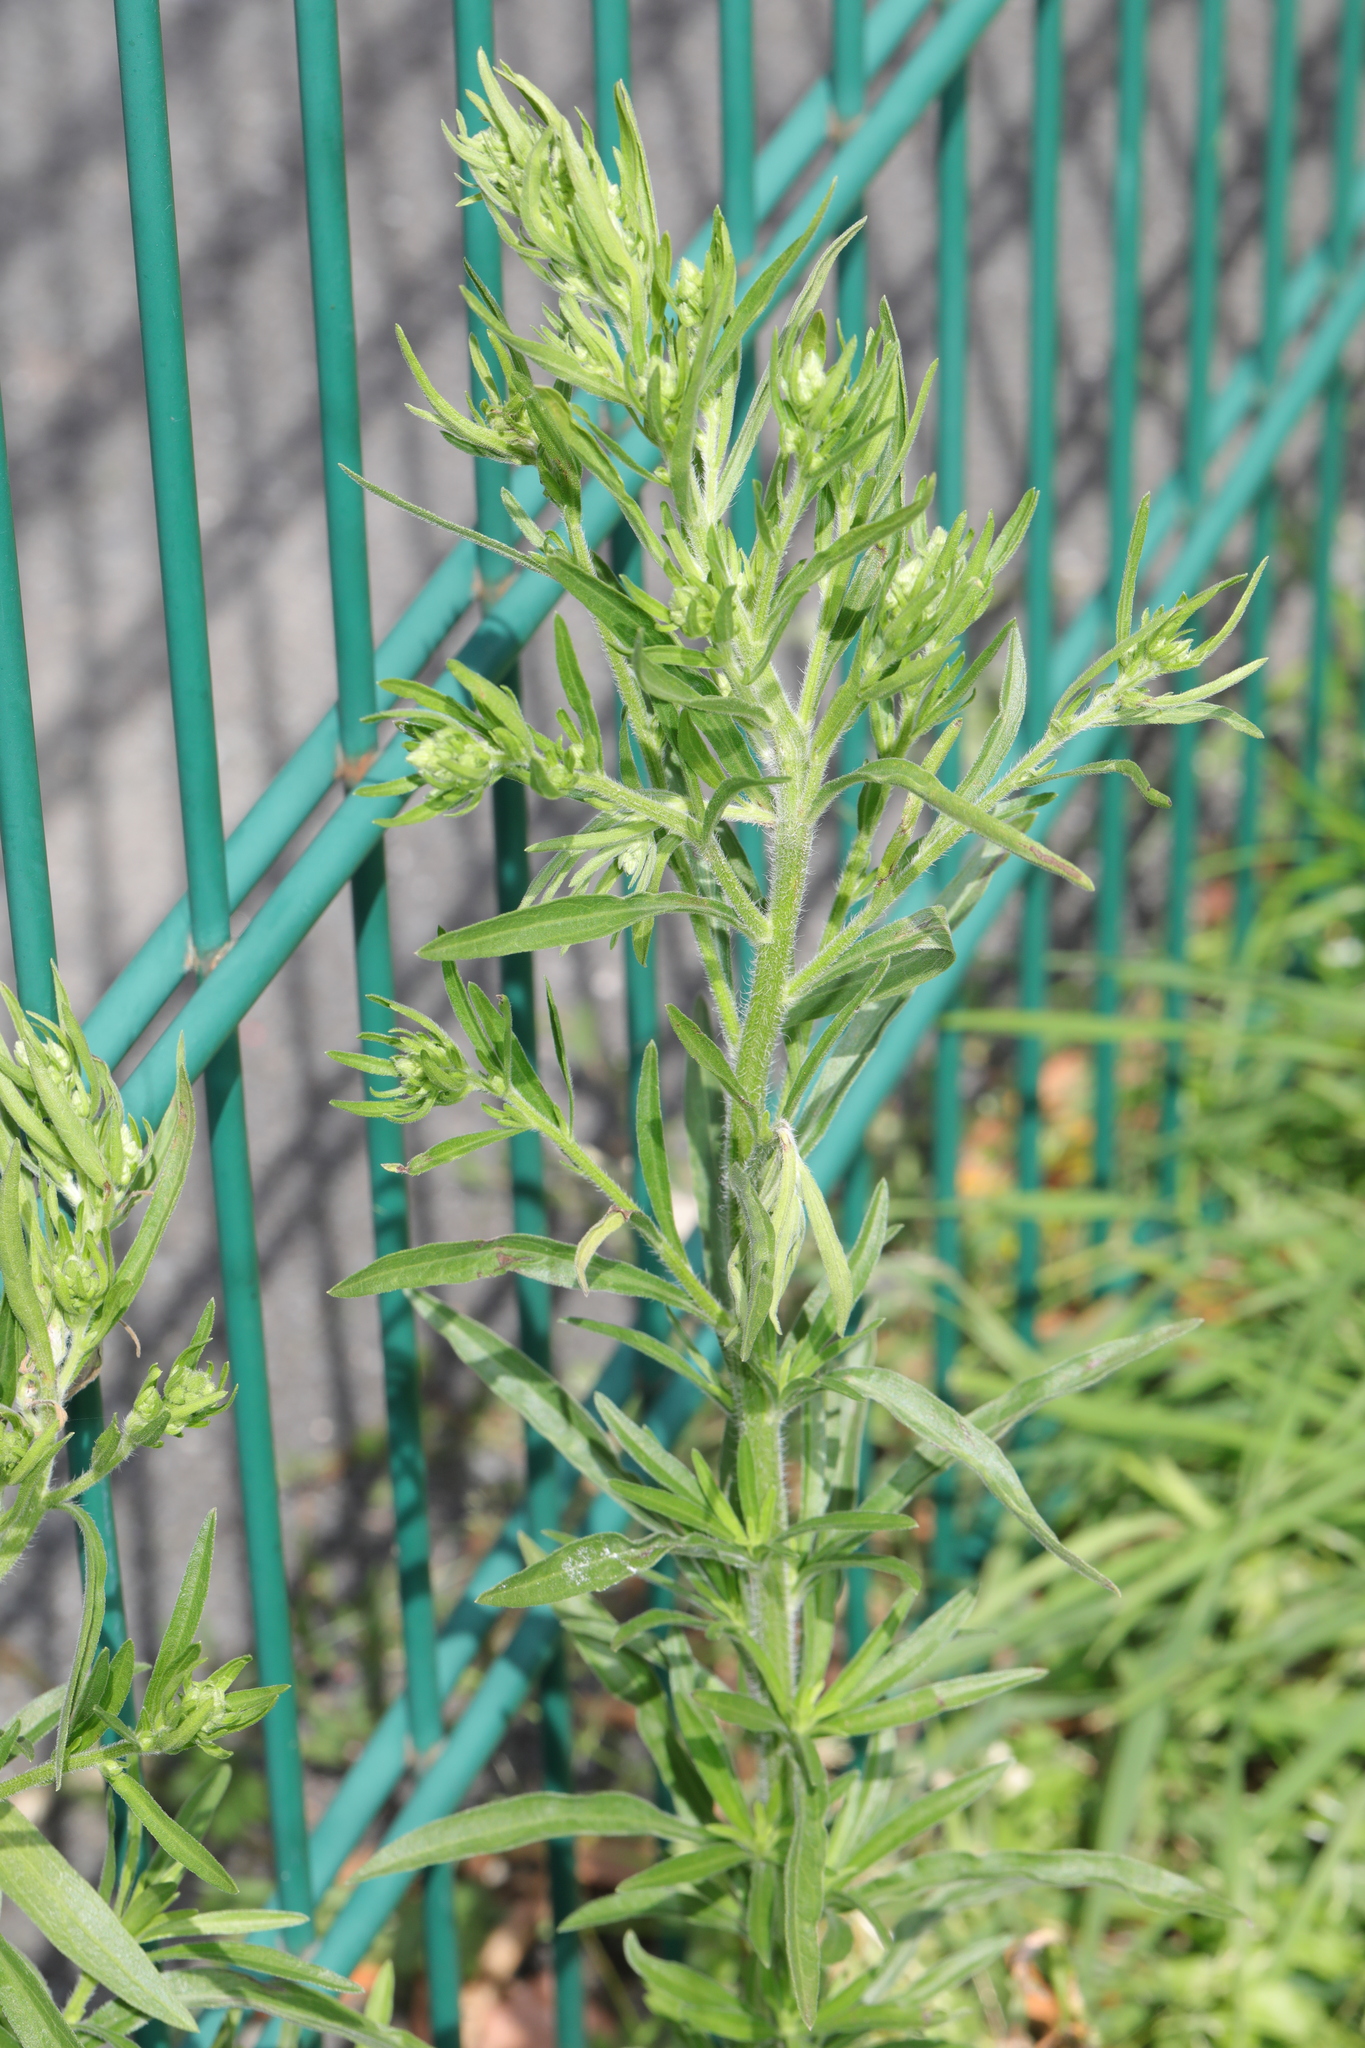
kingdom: Plantae
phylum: Tracheophyta
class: Magnoliopsida
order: Asterales
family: Asteraceae
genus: Artemisia
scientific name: Artemisia vulgaris
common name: Mugwort
